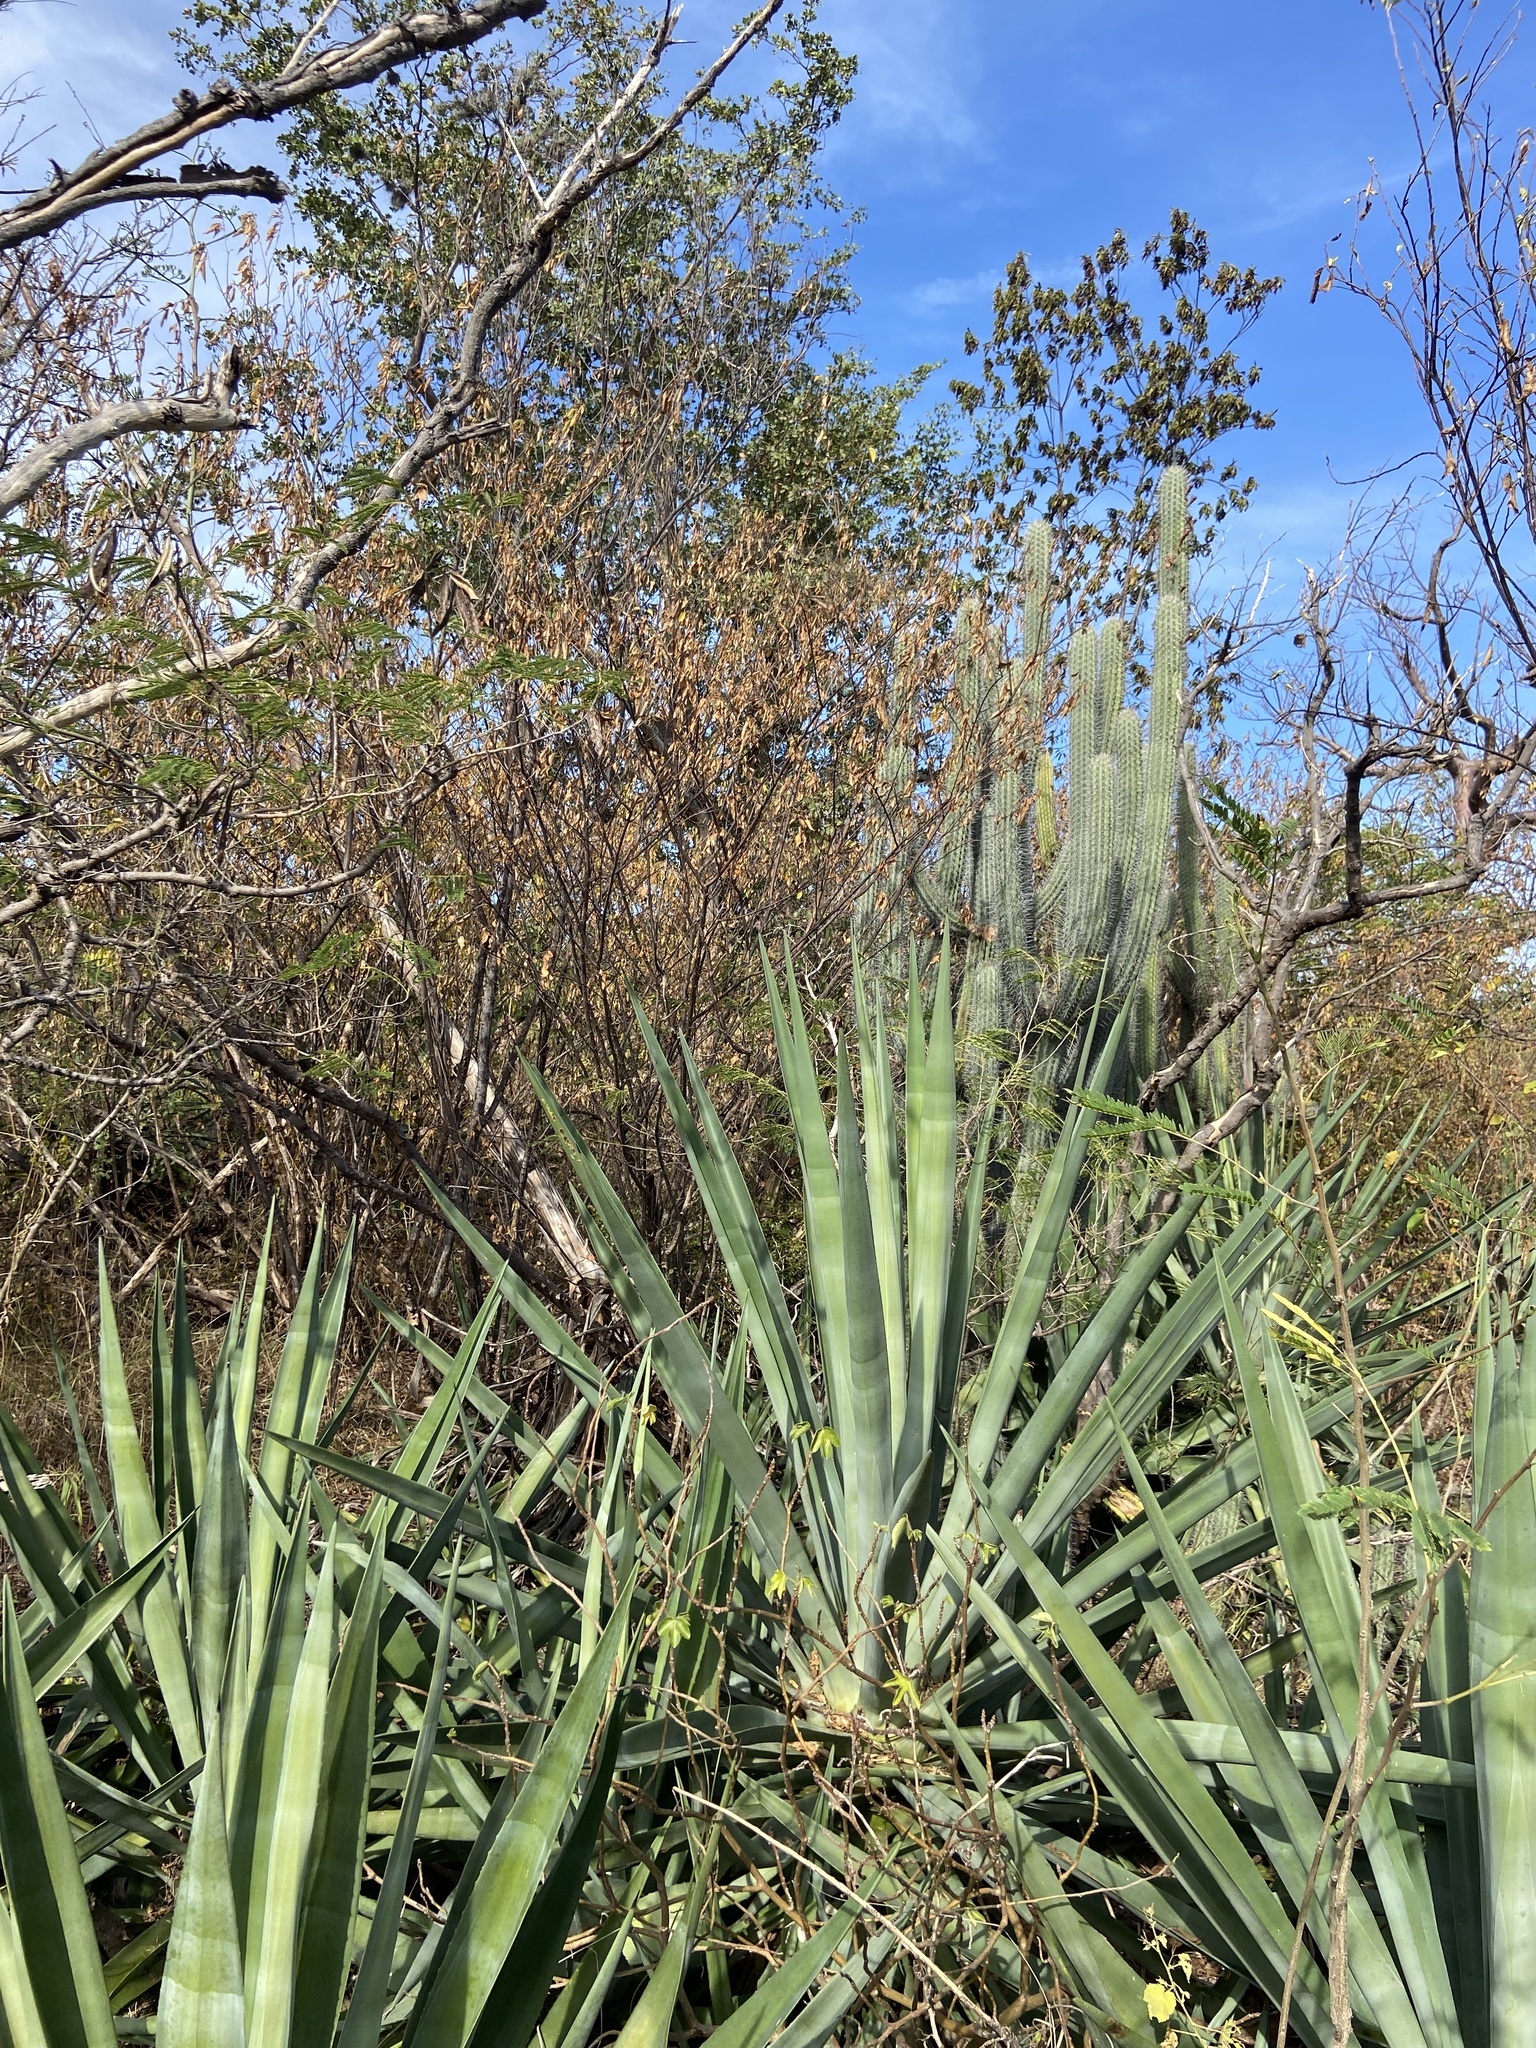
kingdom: Plantae
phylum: Tracheophyta
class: Liliopsida
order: Asparagales
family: Asparagaceae
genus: Agave
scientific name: Agave sisalana
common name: Sisal hemp
